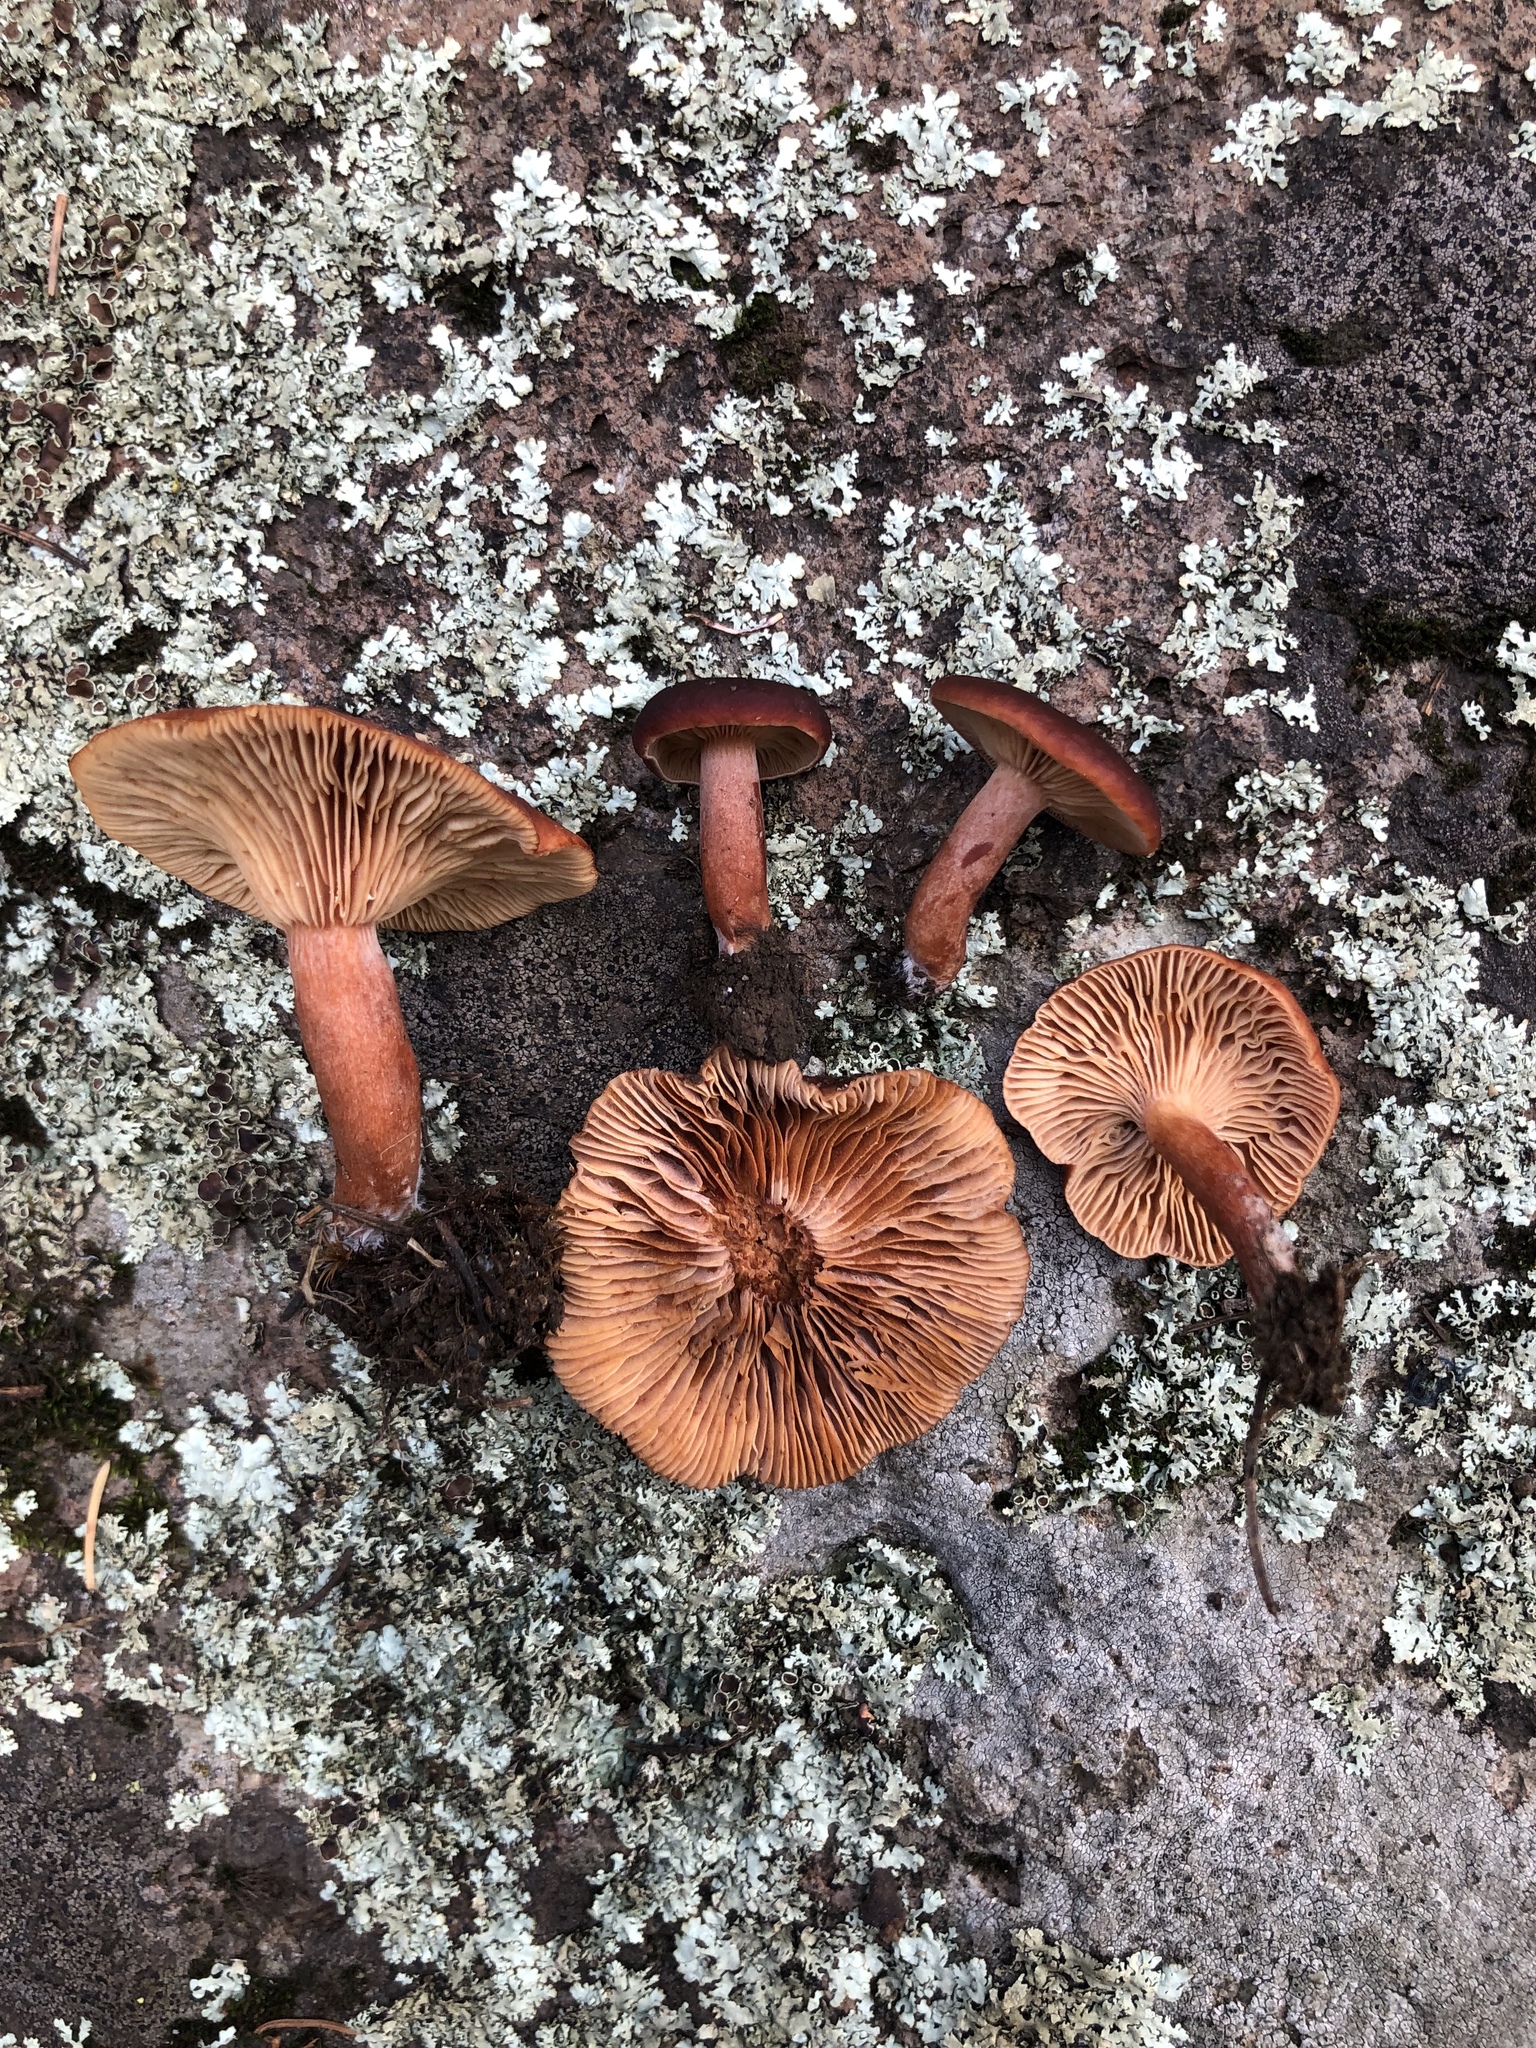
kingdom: Fungi
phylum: Basidiomycota
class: Agaricomycetes
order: Russulales
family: Russulaceae
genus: Lactarius
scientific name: Lactarius badiosanguineus
